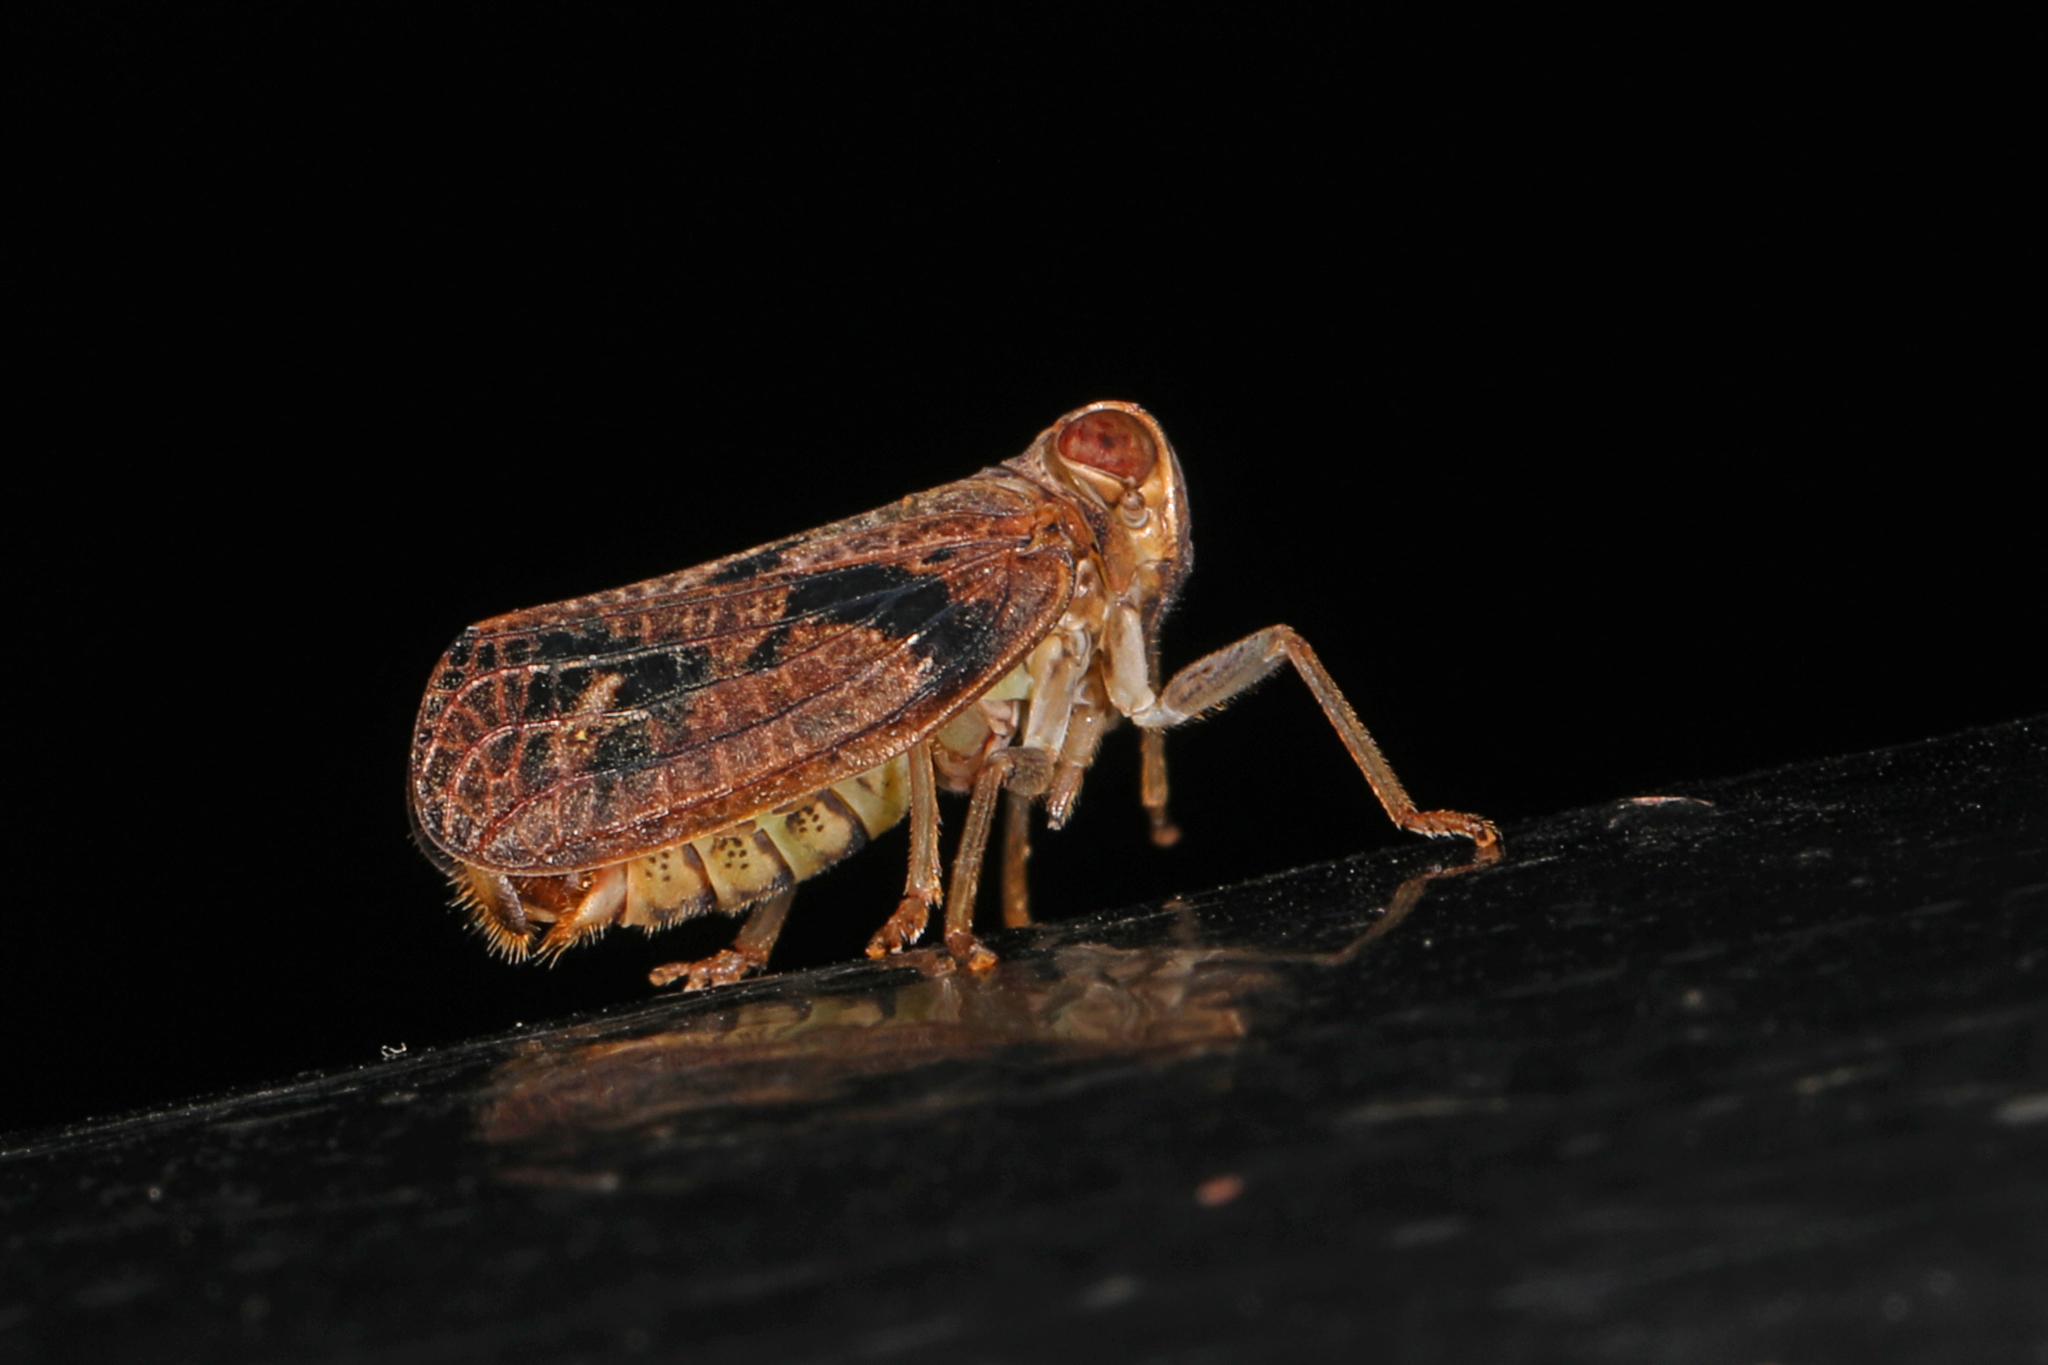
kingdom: Animalia
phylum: Arthropoda
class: Insecta
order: Hemiptera
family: Issidae
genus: Thionia
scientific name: Thionia bullata
